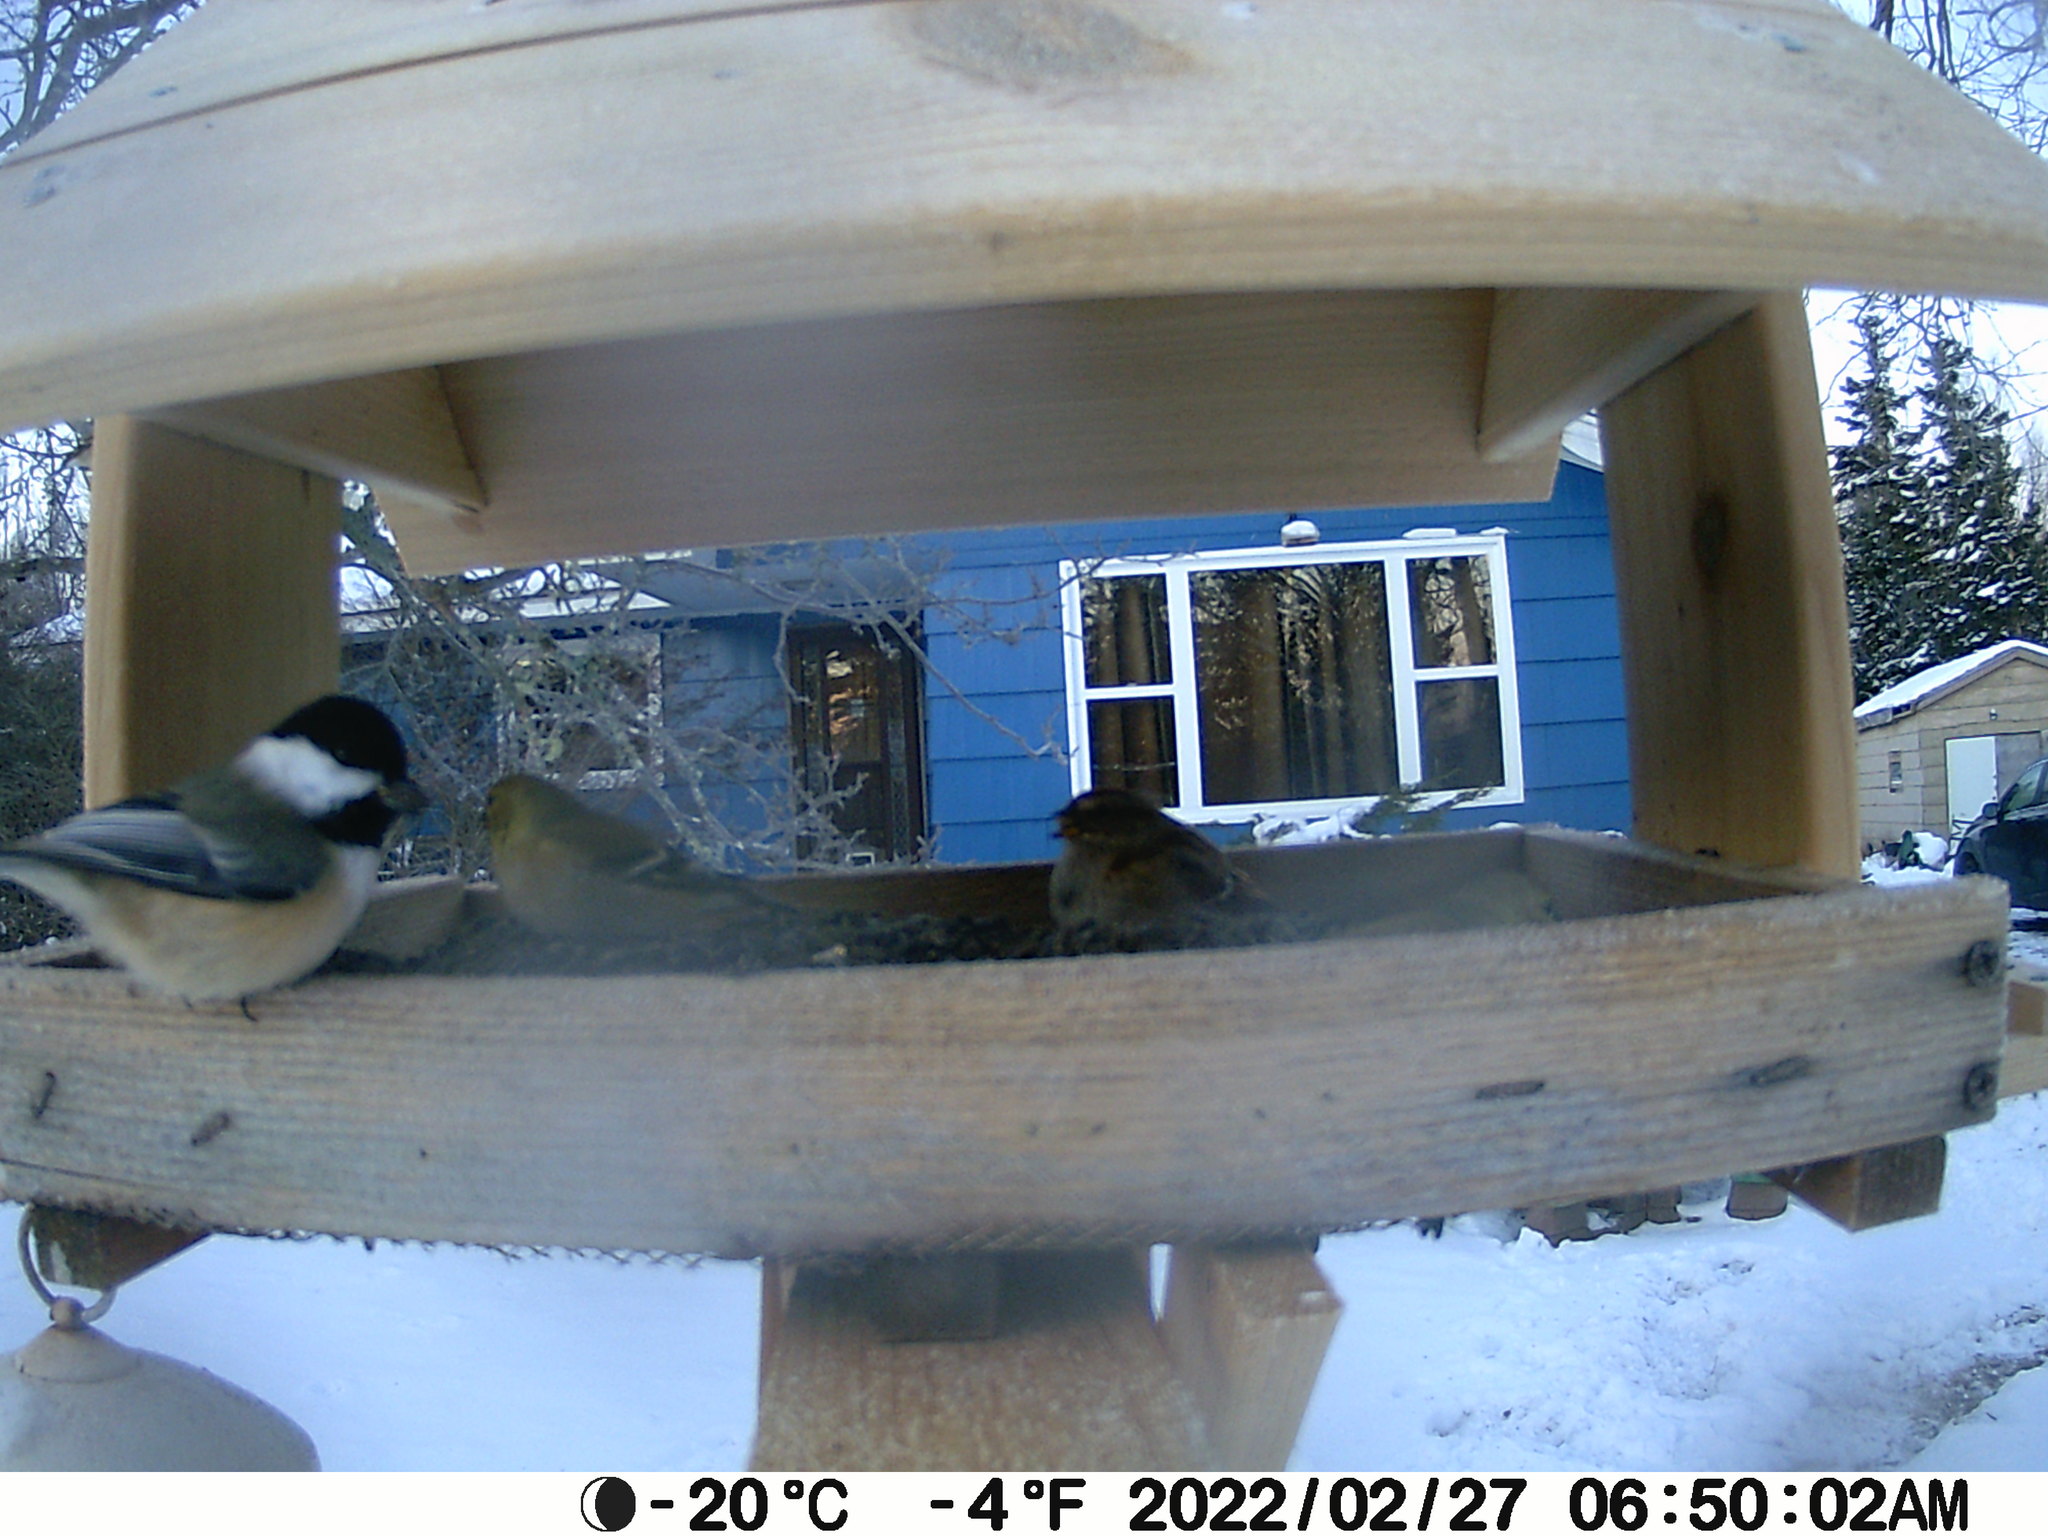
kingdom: Animalia
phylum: Chordata
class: Aves
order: Passeriformes
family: Paridae
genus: Poecile
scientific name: Poecile atricapillus
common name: Black-capped chickadee
